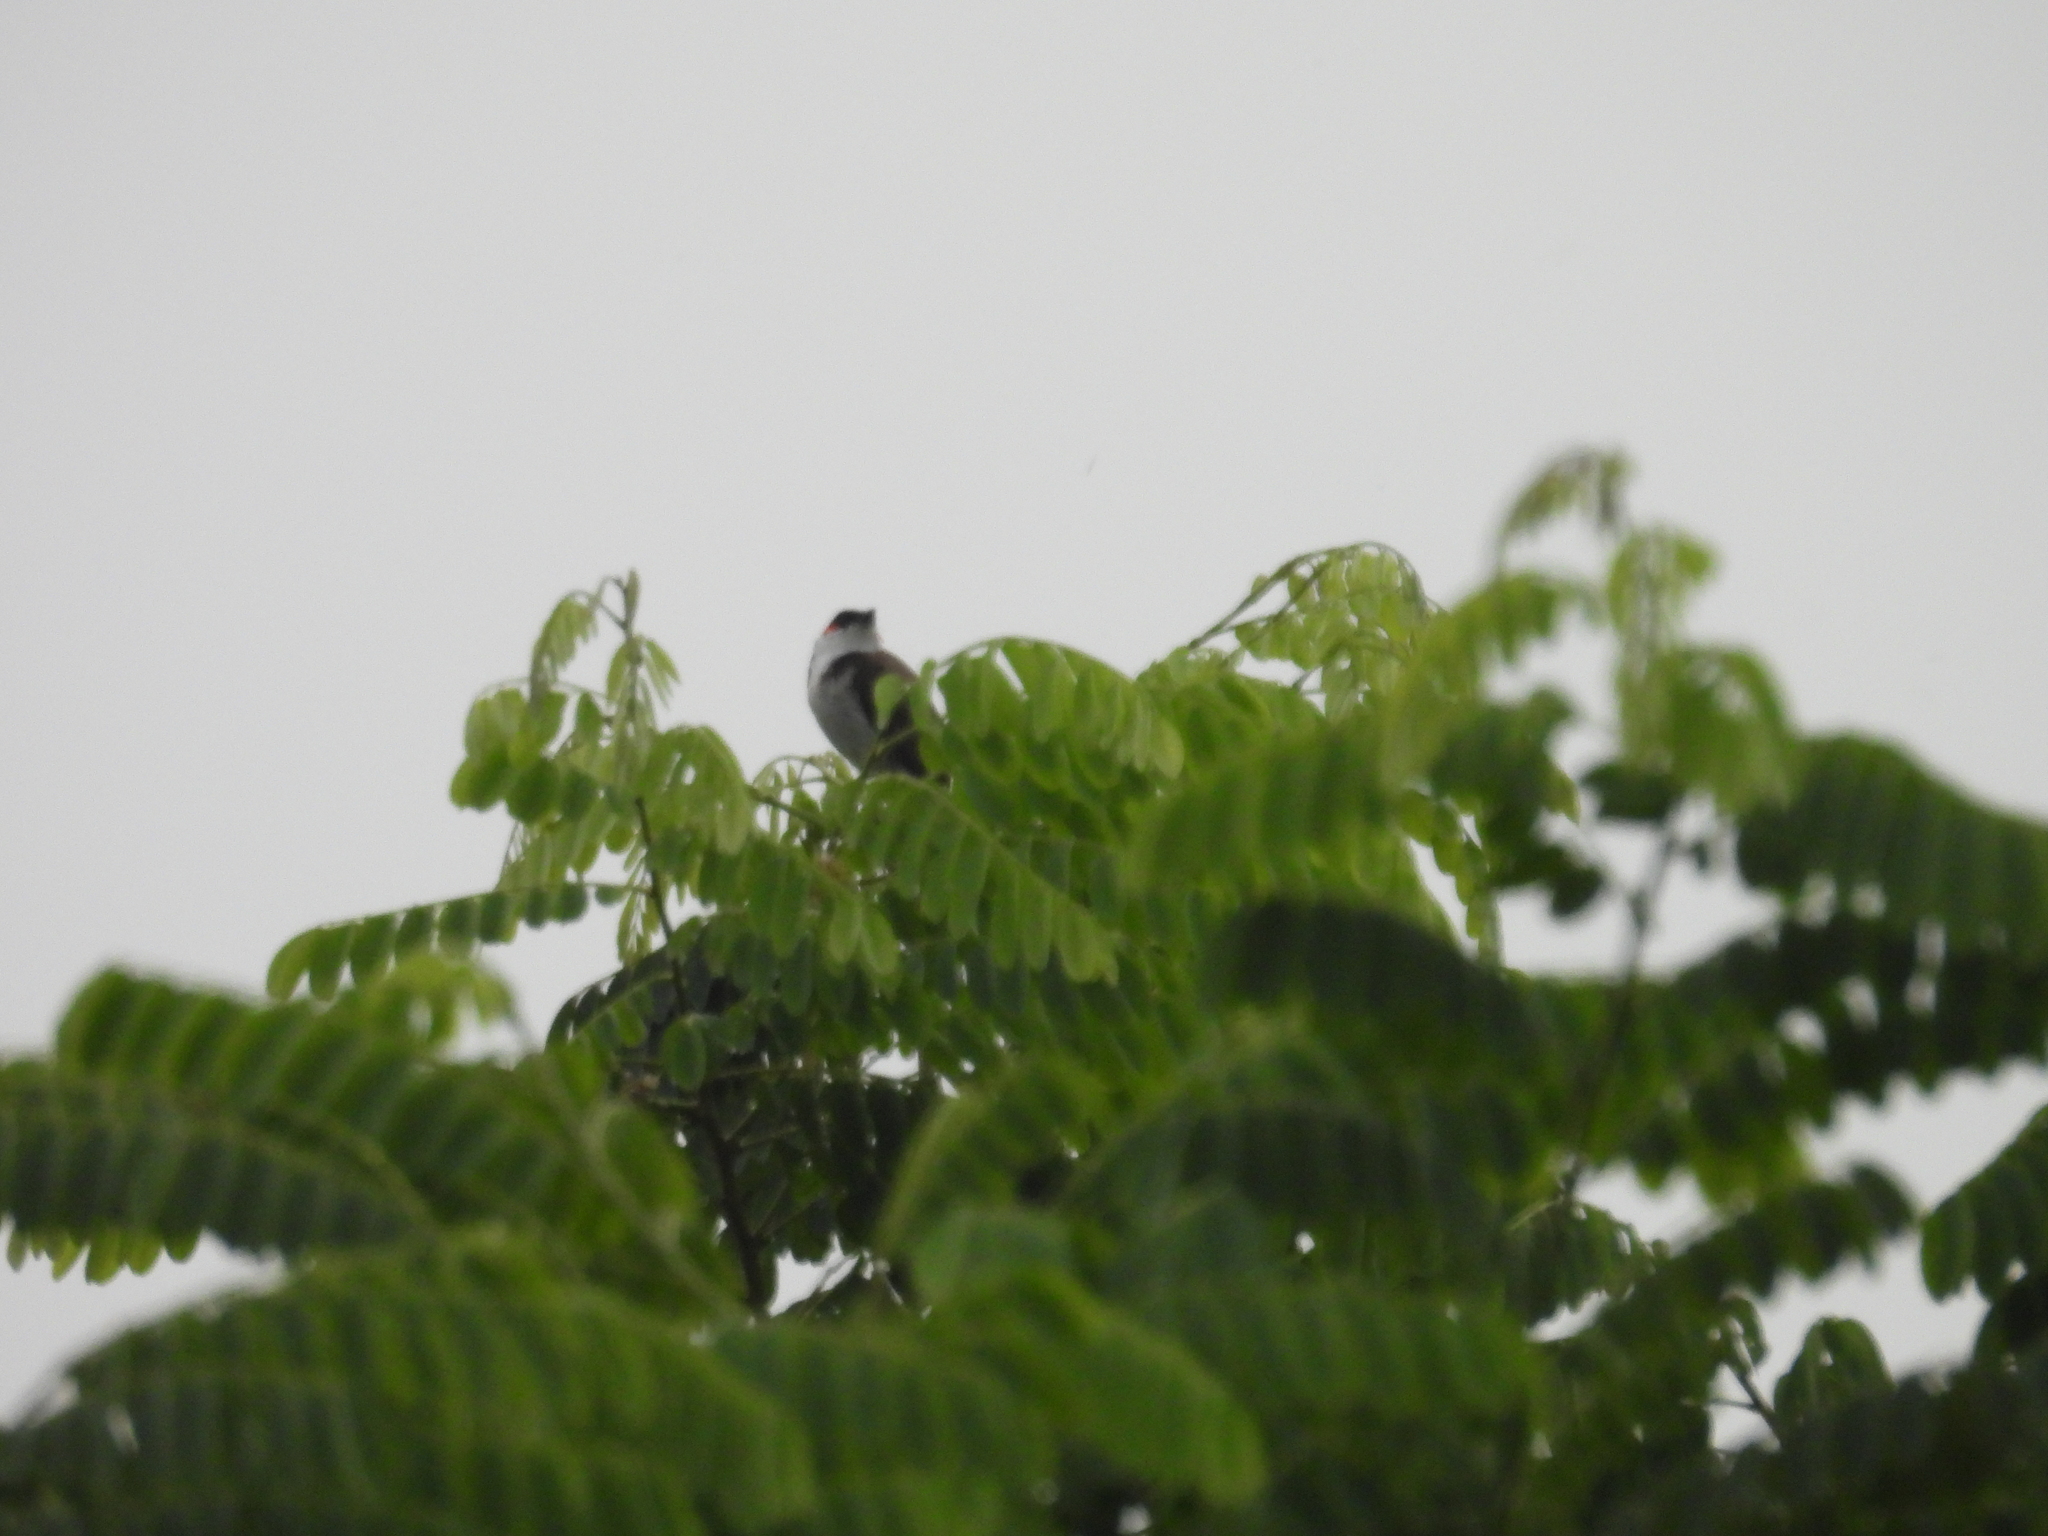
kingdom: Animalia
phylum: Chordata
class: Aves
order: Passeriformes
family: Pycnonotidae
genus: Pycnonotus
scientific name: Pycnonotus jocosus
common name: Red-whiskered bulbul
